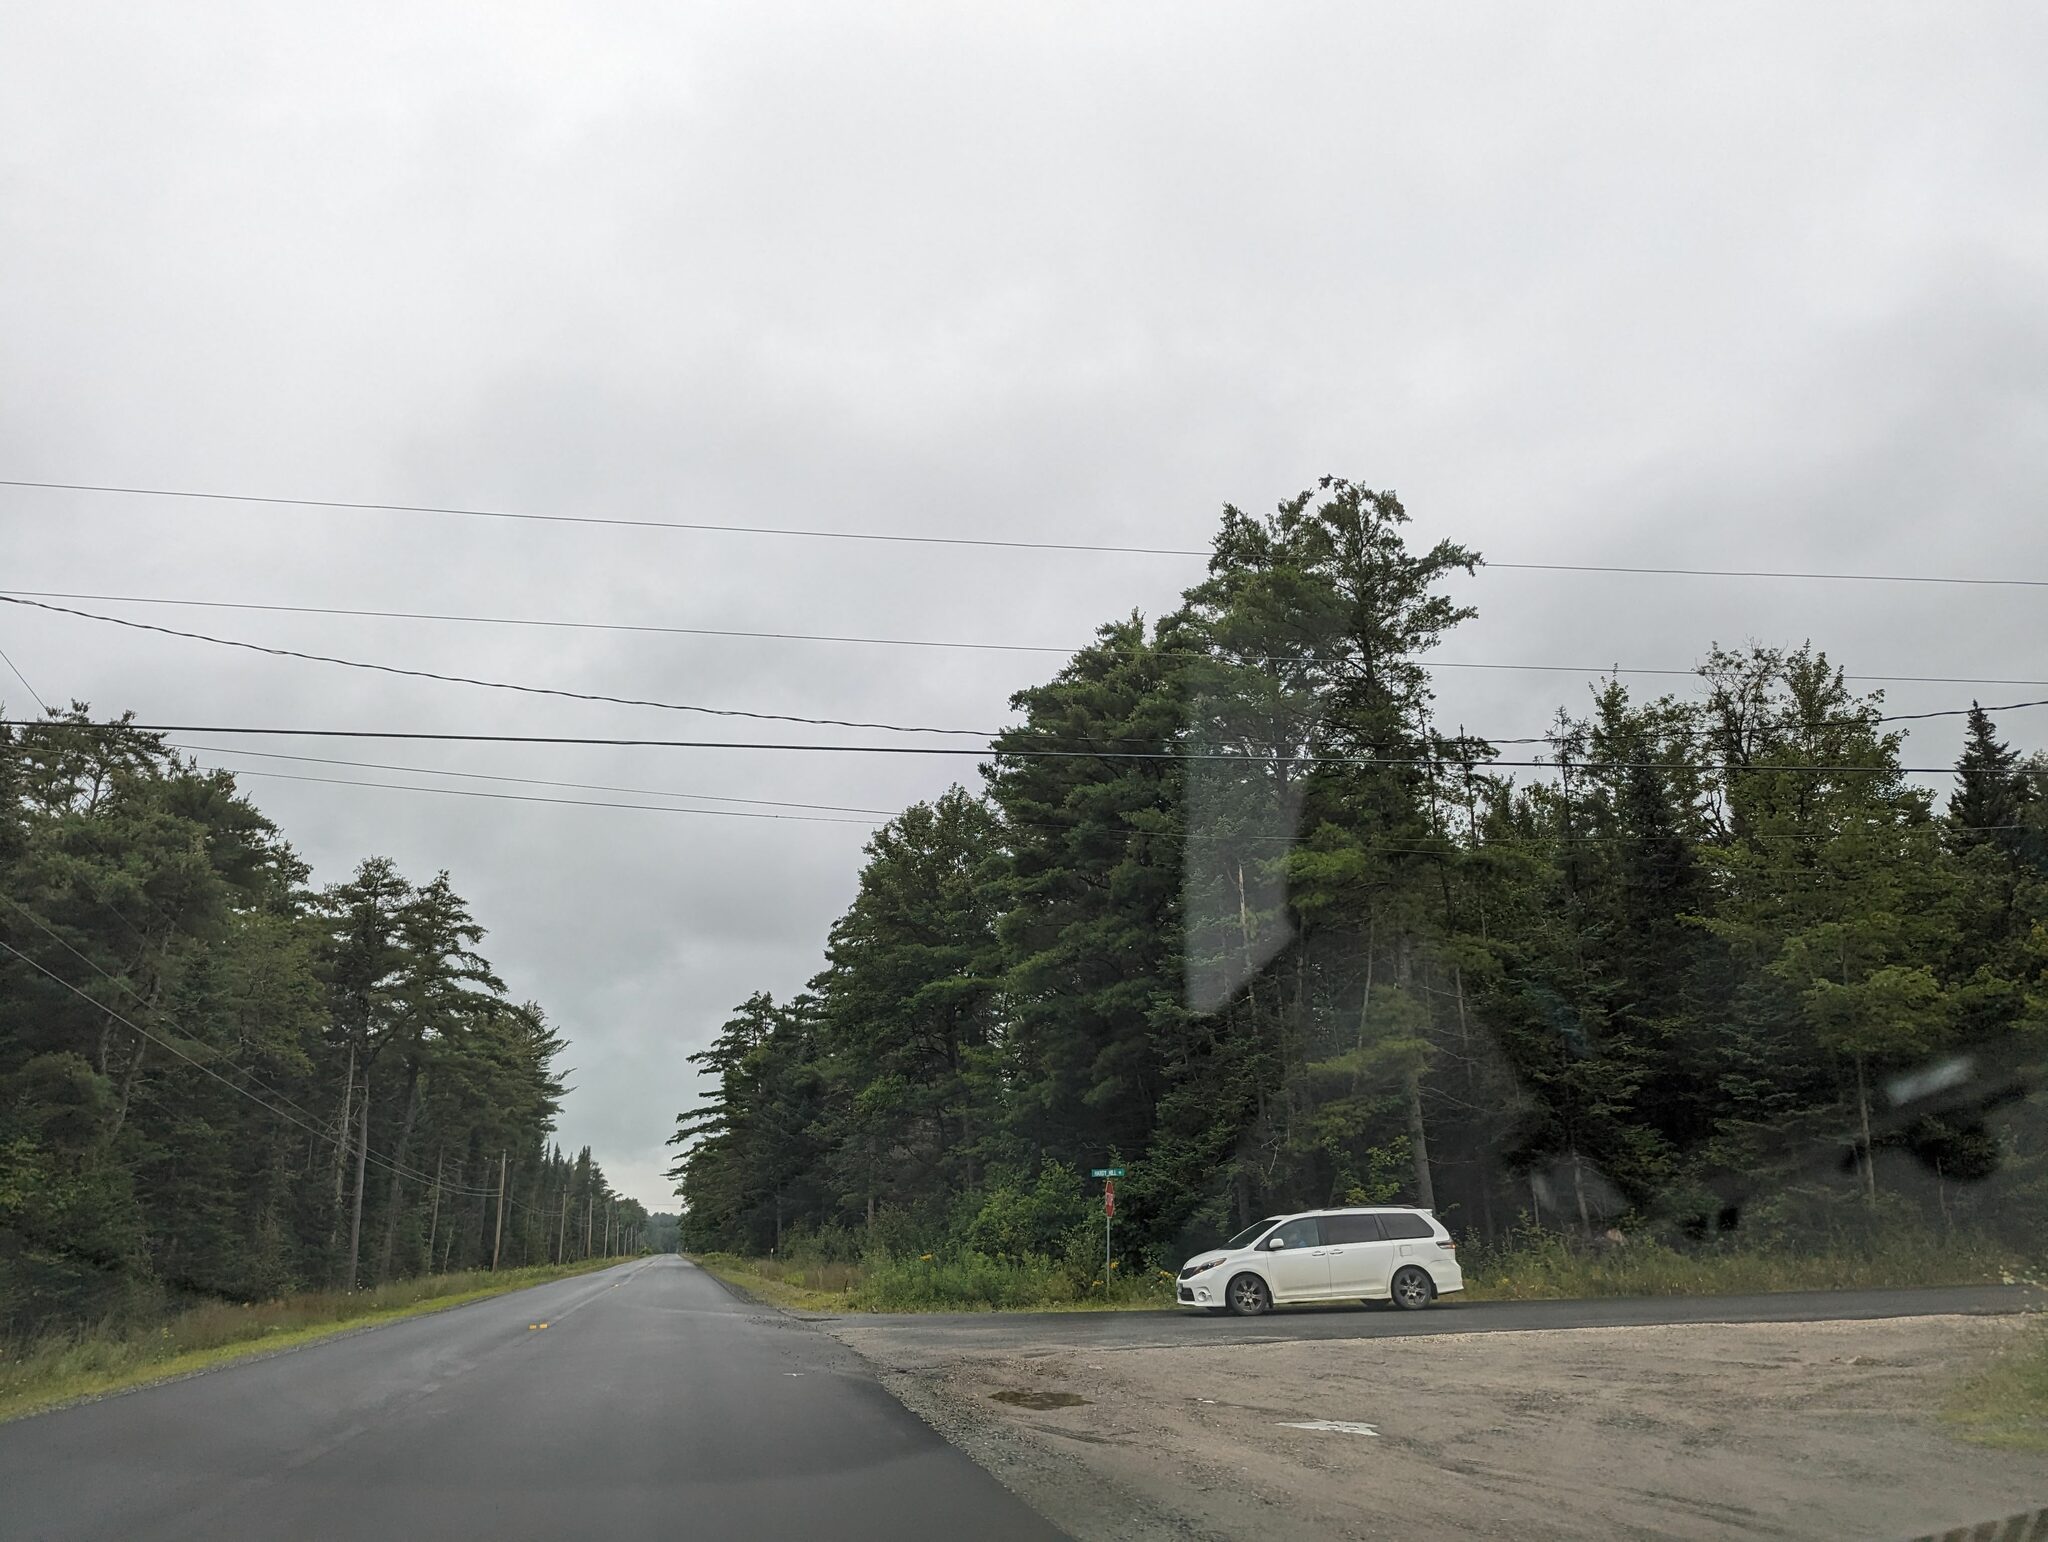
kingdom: Plantae
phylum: Tracheophyta
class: Pinopsida
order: Pinales
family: Pinaceae
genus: Pinus
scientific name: Pinus strobus
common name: Weymouth pine
